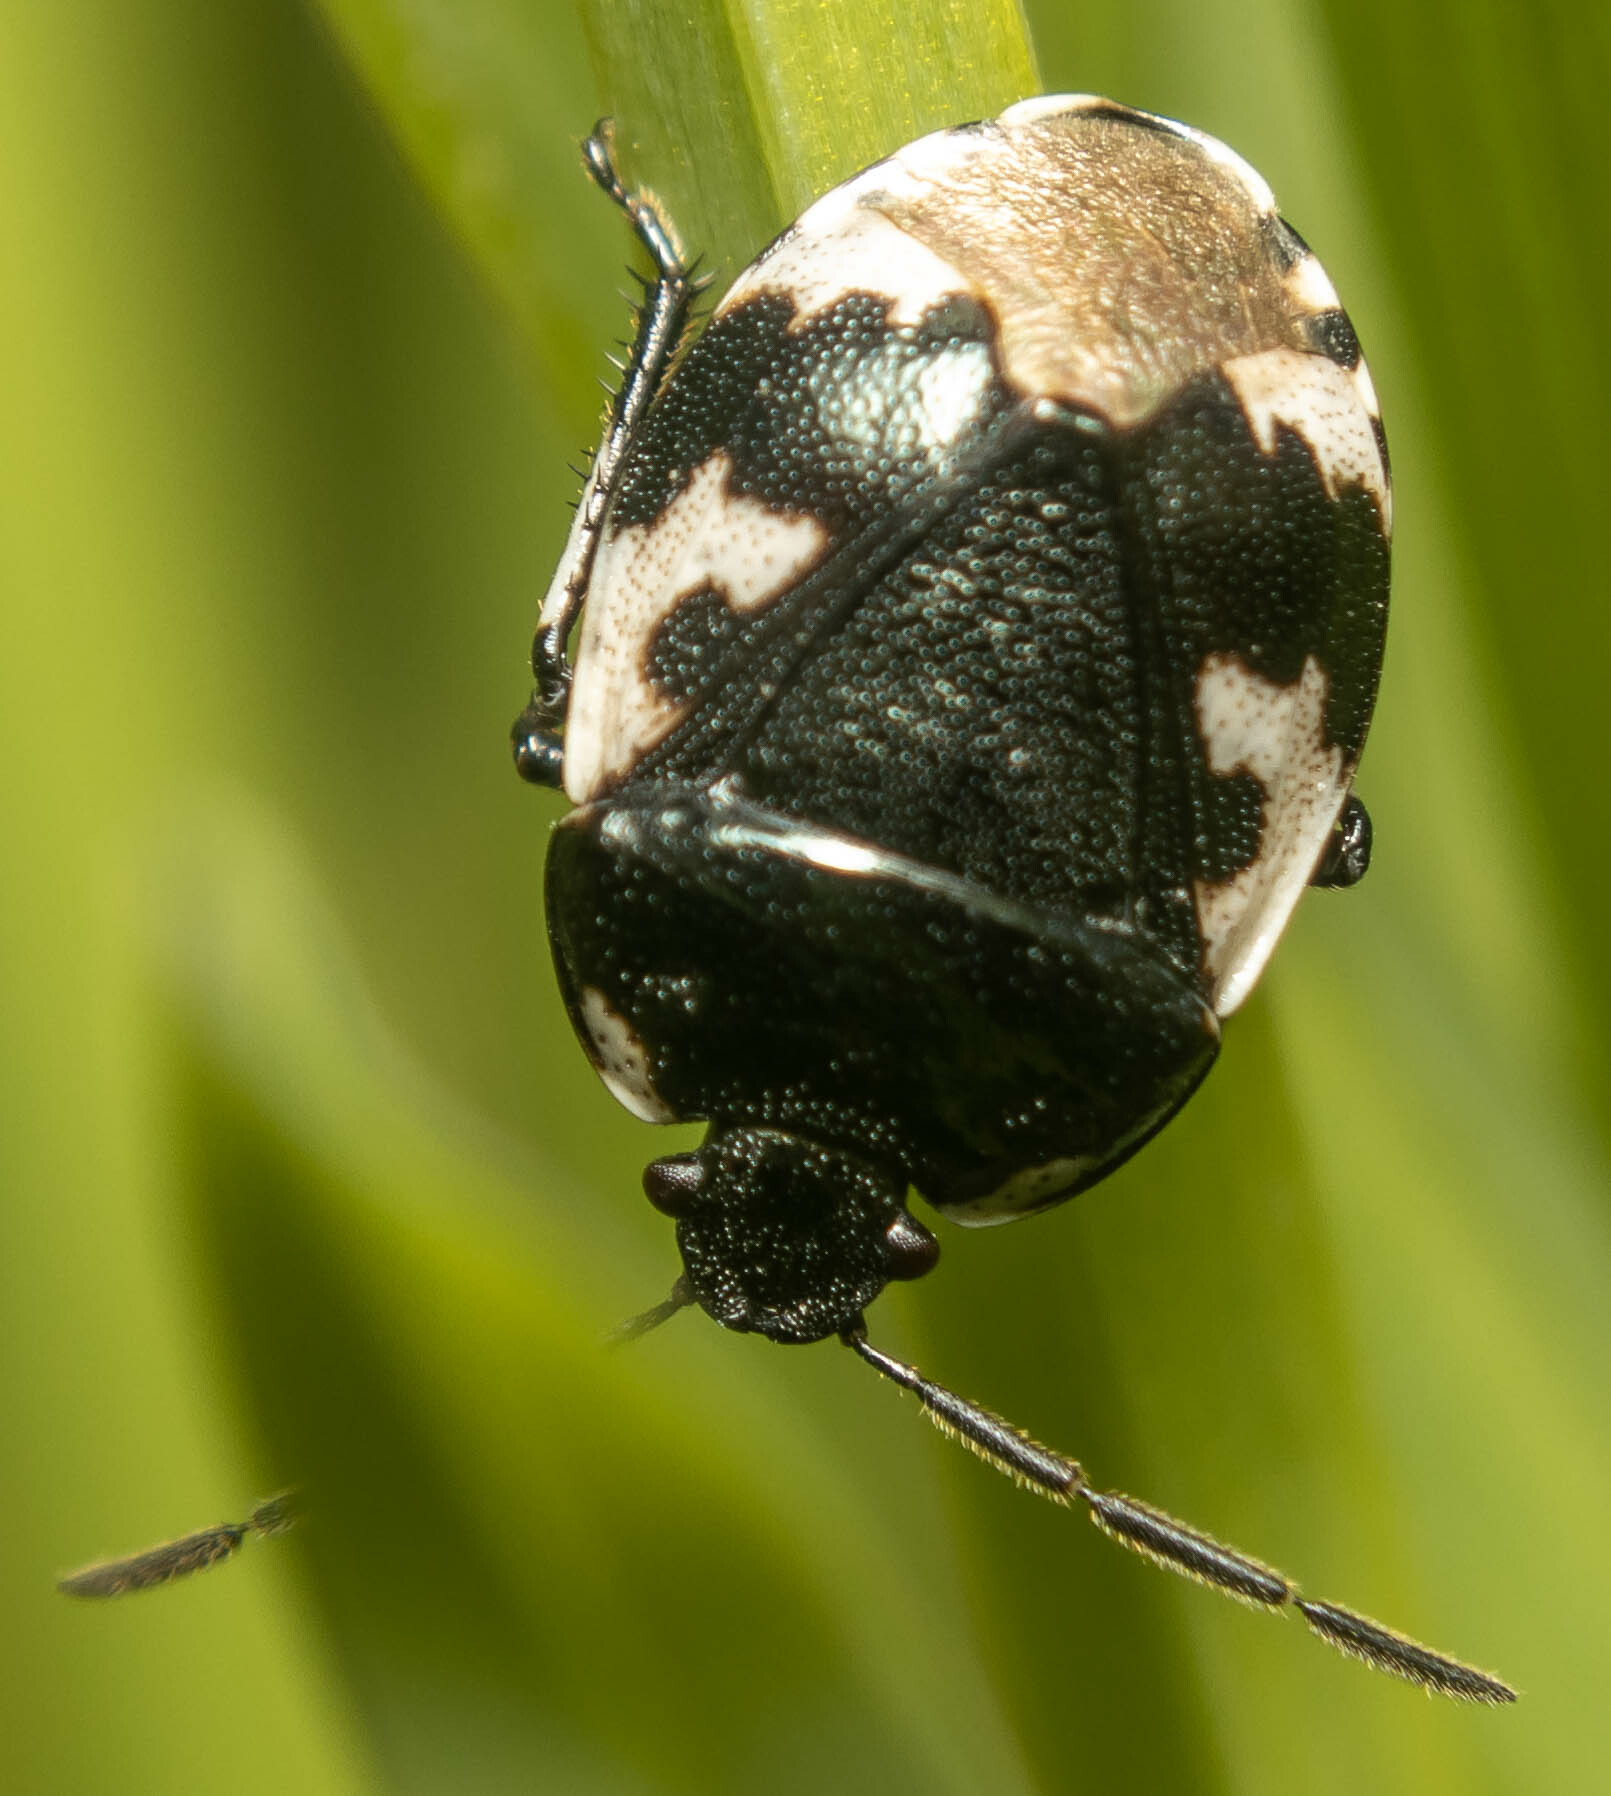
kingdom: Animalia
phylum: Arthropoda
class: Insecta
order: Hemiptera
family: Cydnidae
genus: Tritomegas
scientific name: Tritomegas bicolor
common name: Pied shieldbug
